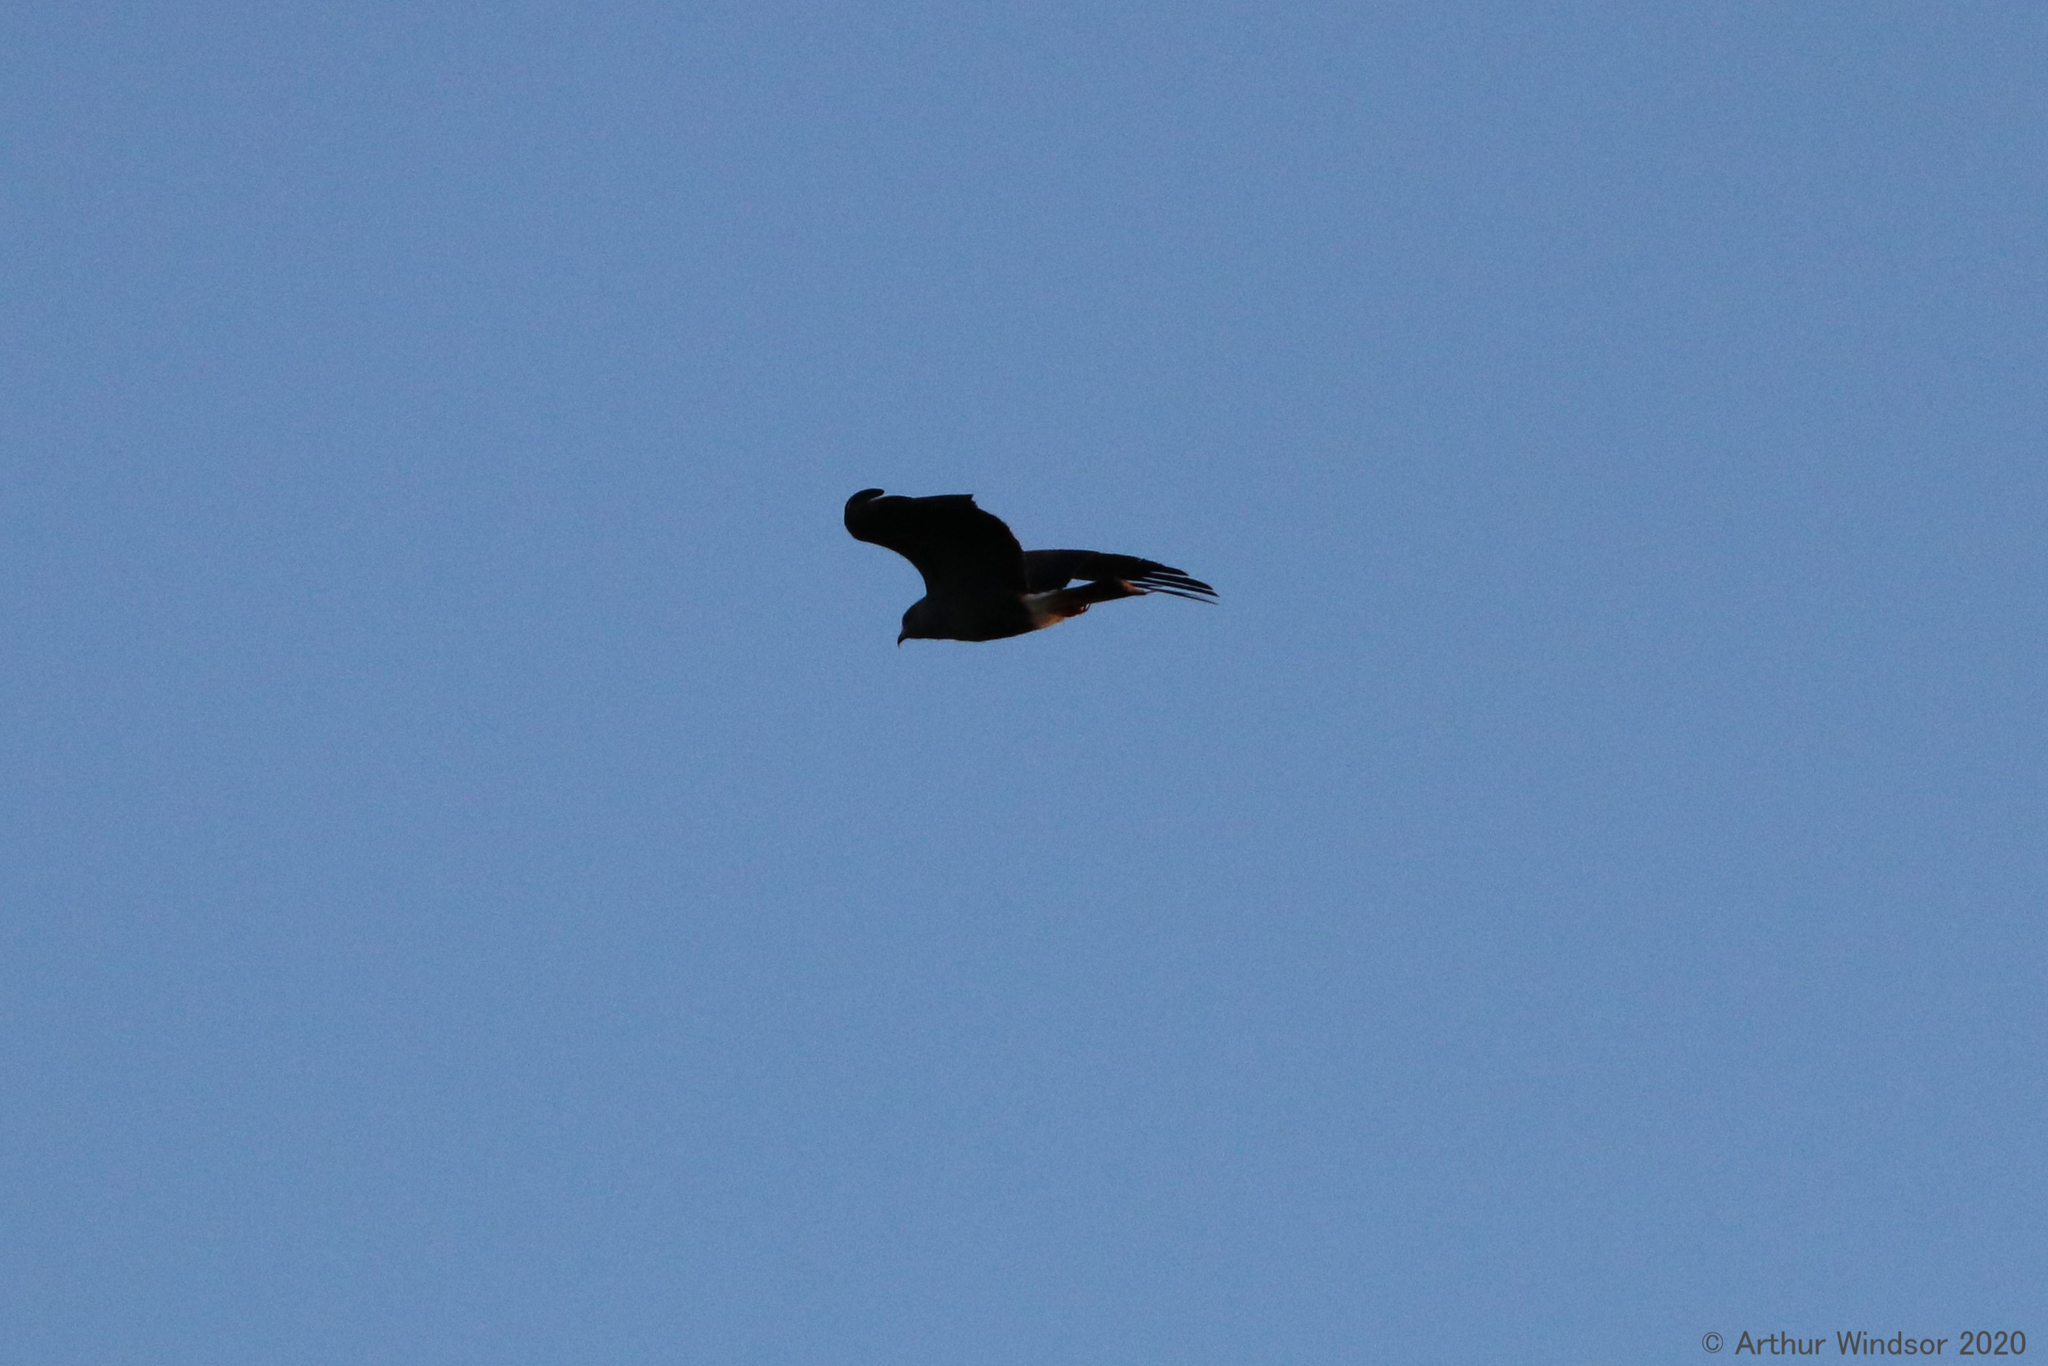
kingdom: Animalia
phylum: Chordata
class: Aves
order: Accipitriformes
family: Accipitridae
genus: Rostrhamus
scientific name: Rostrhamus sociabilis
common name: Snail kite
